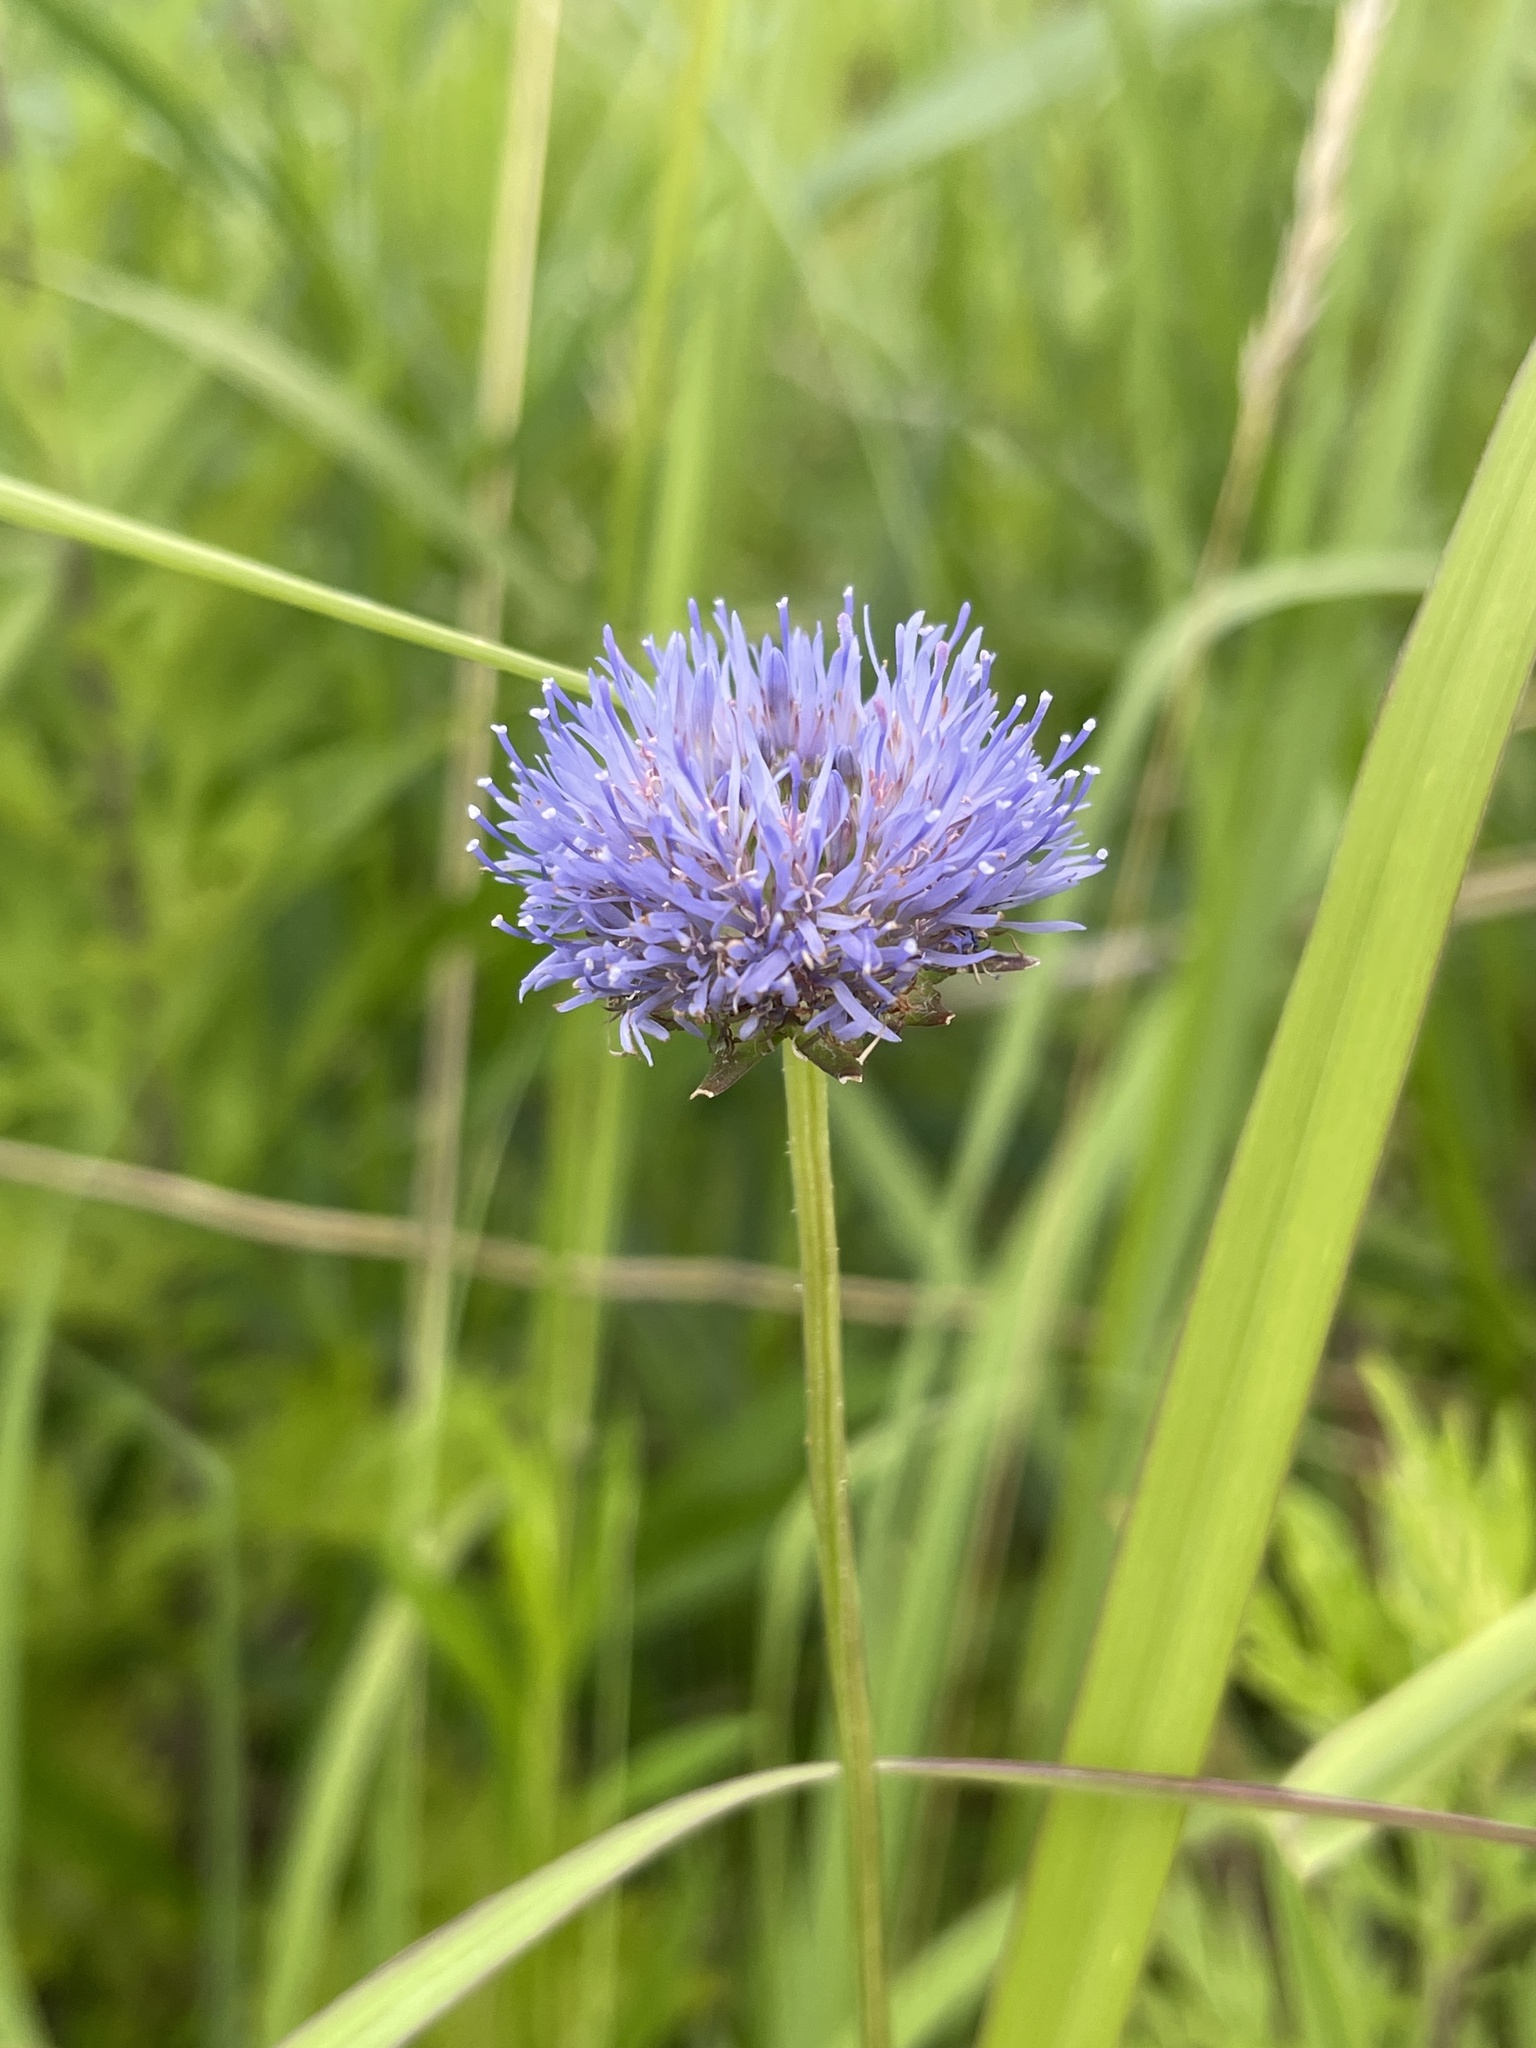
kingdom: Plantae
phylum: Tracheophyta
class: Magnoliopsida
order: Asterales
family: Campanulaceae
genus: Jasione
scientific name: Jasione montana
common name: Sheep's-bit
